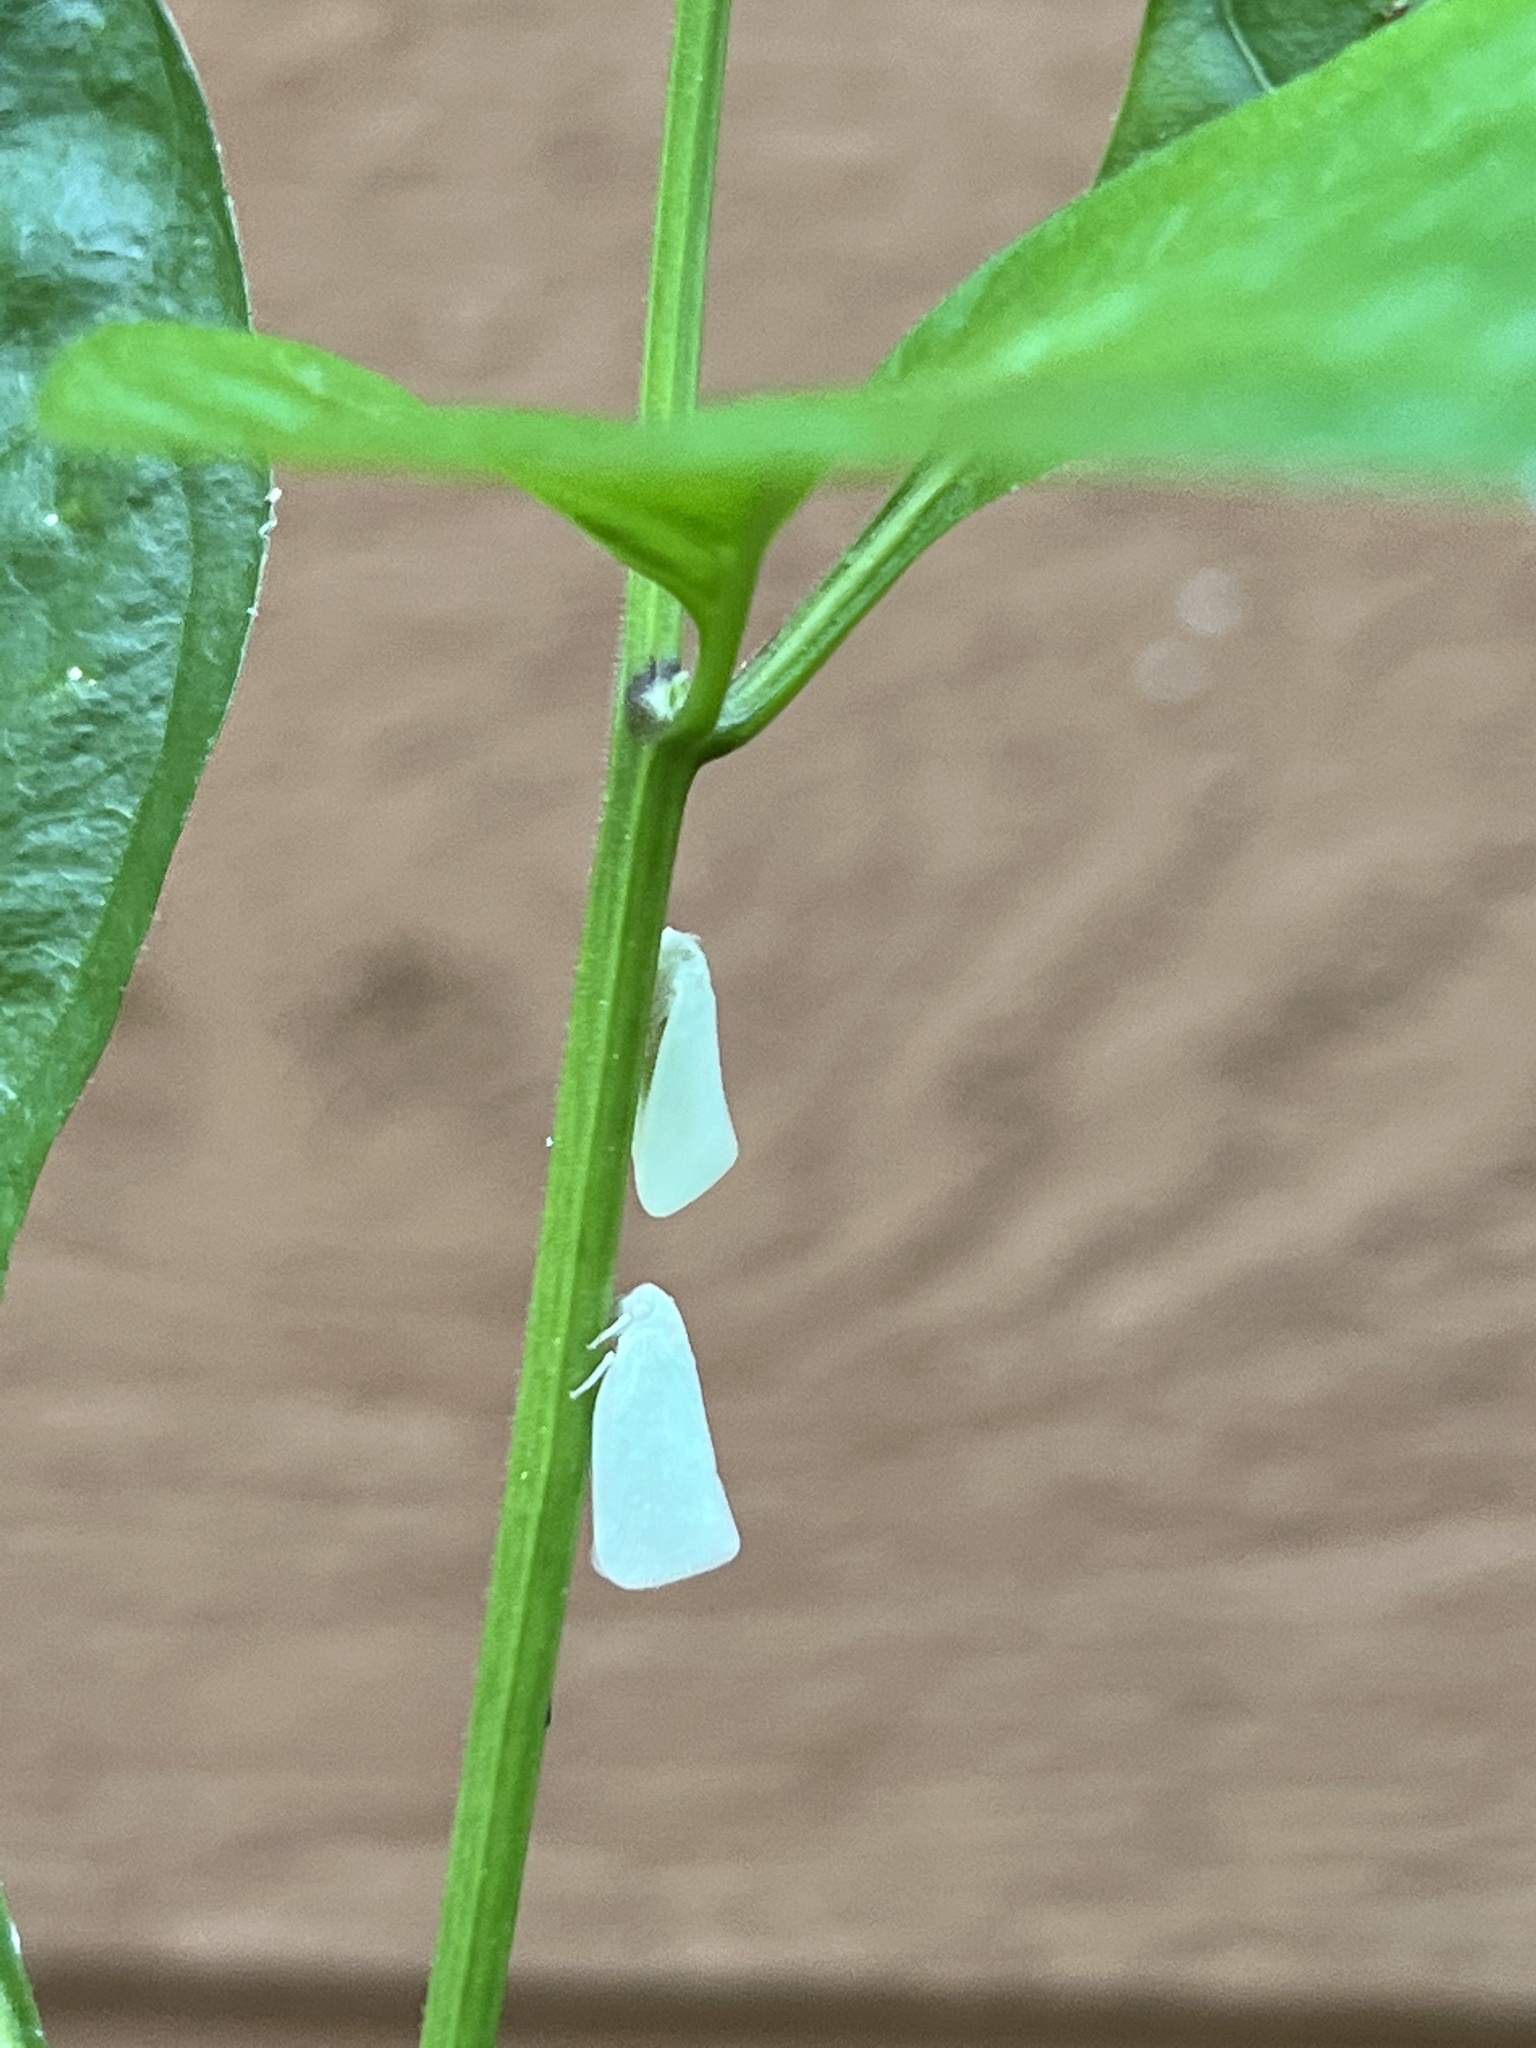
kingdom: Animalia
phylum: Arthropoda
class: Insecta
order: Hemiptera
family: Flatidae
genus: Flatormenis
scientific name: Flatormenis proxima
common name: Northern flatid planthopper
